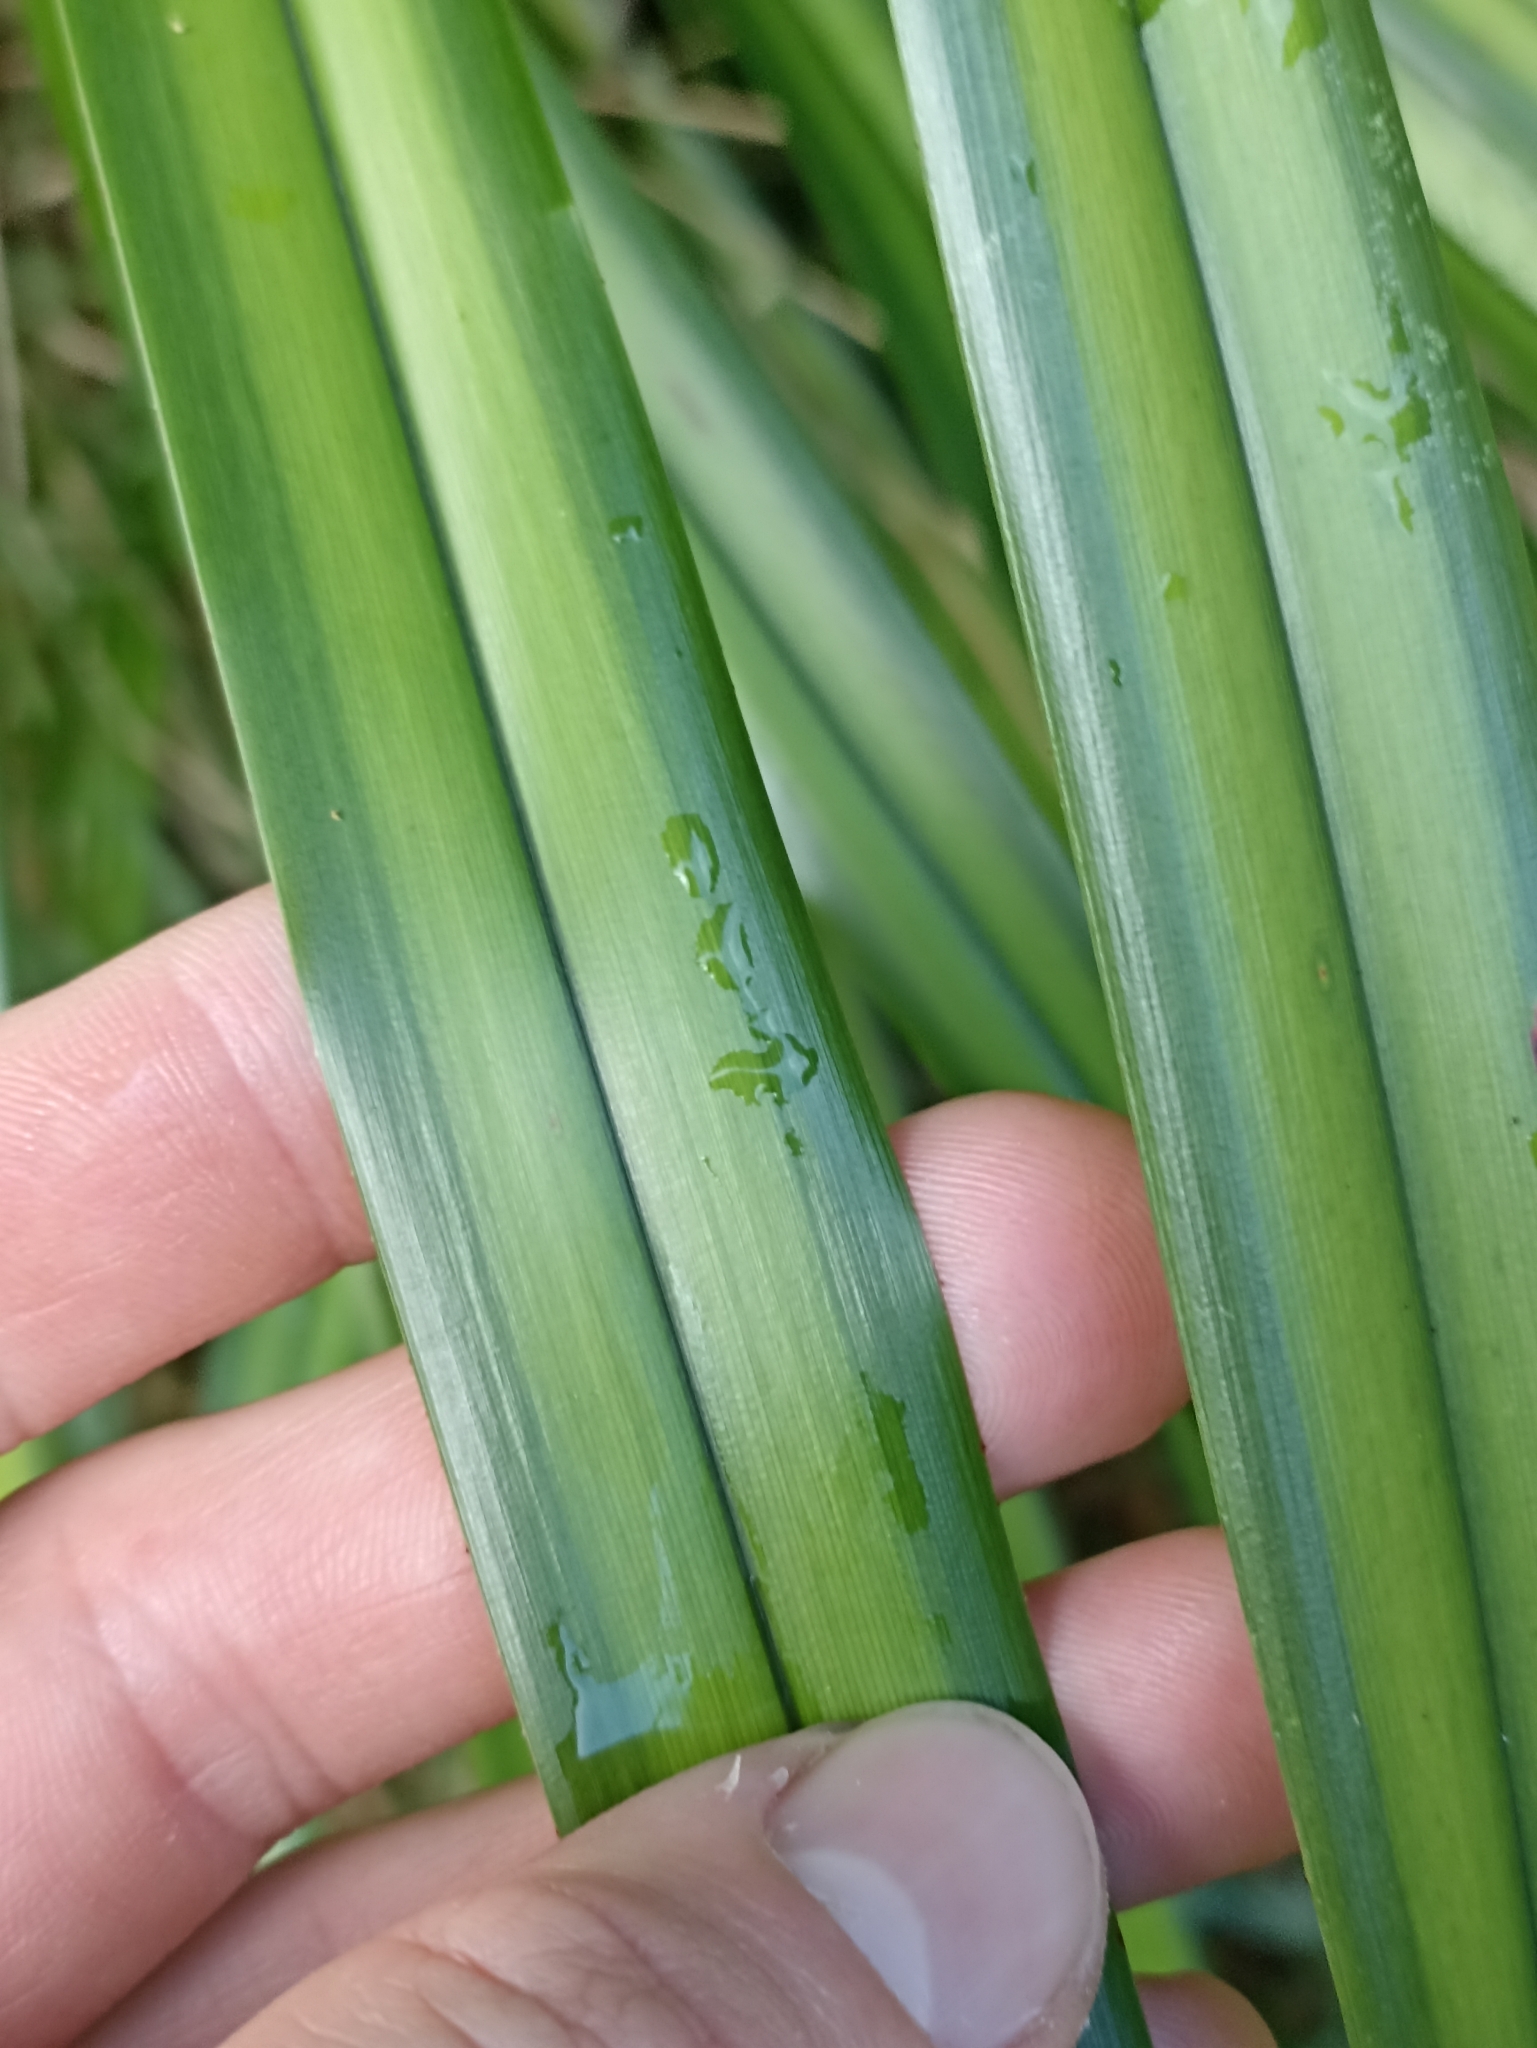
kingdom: Plantae
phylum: Tracheophyta
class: Liliopsida
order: Asparagales
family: Asphodelaceae
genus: Dianella
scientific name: Dianella nigra
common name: New zealand-blueberry
